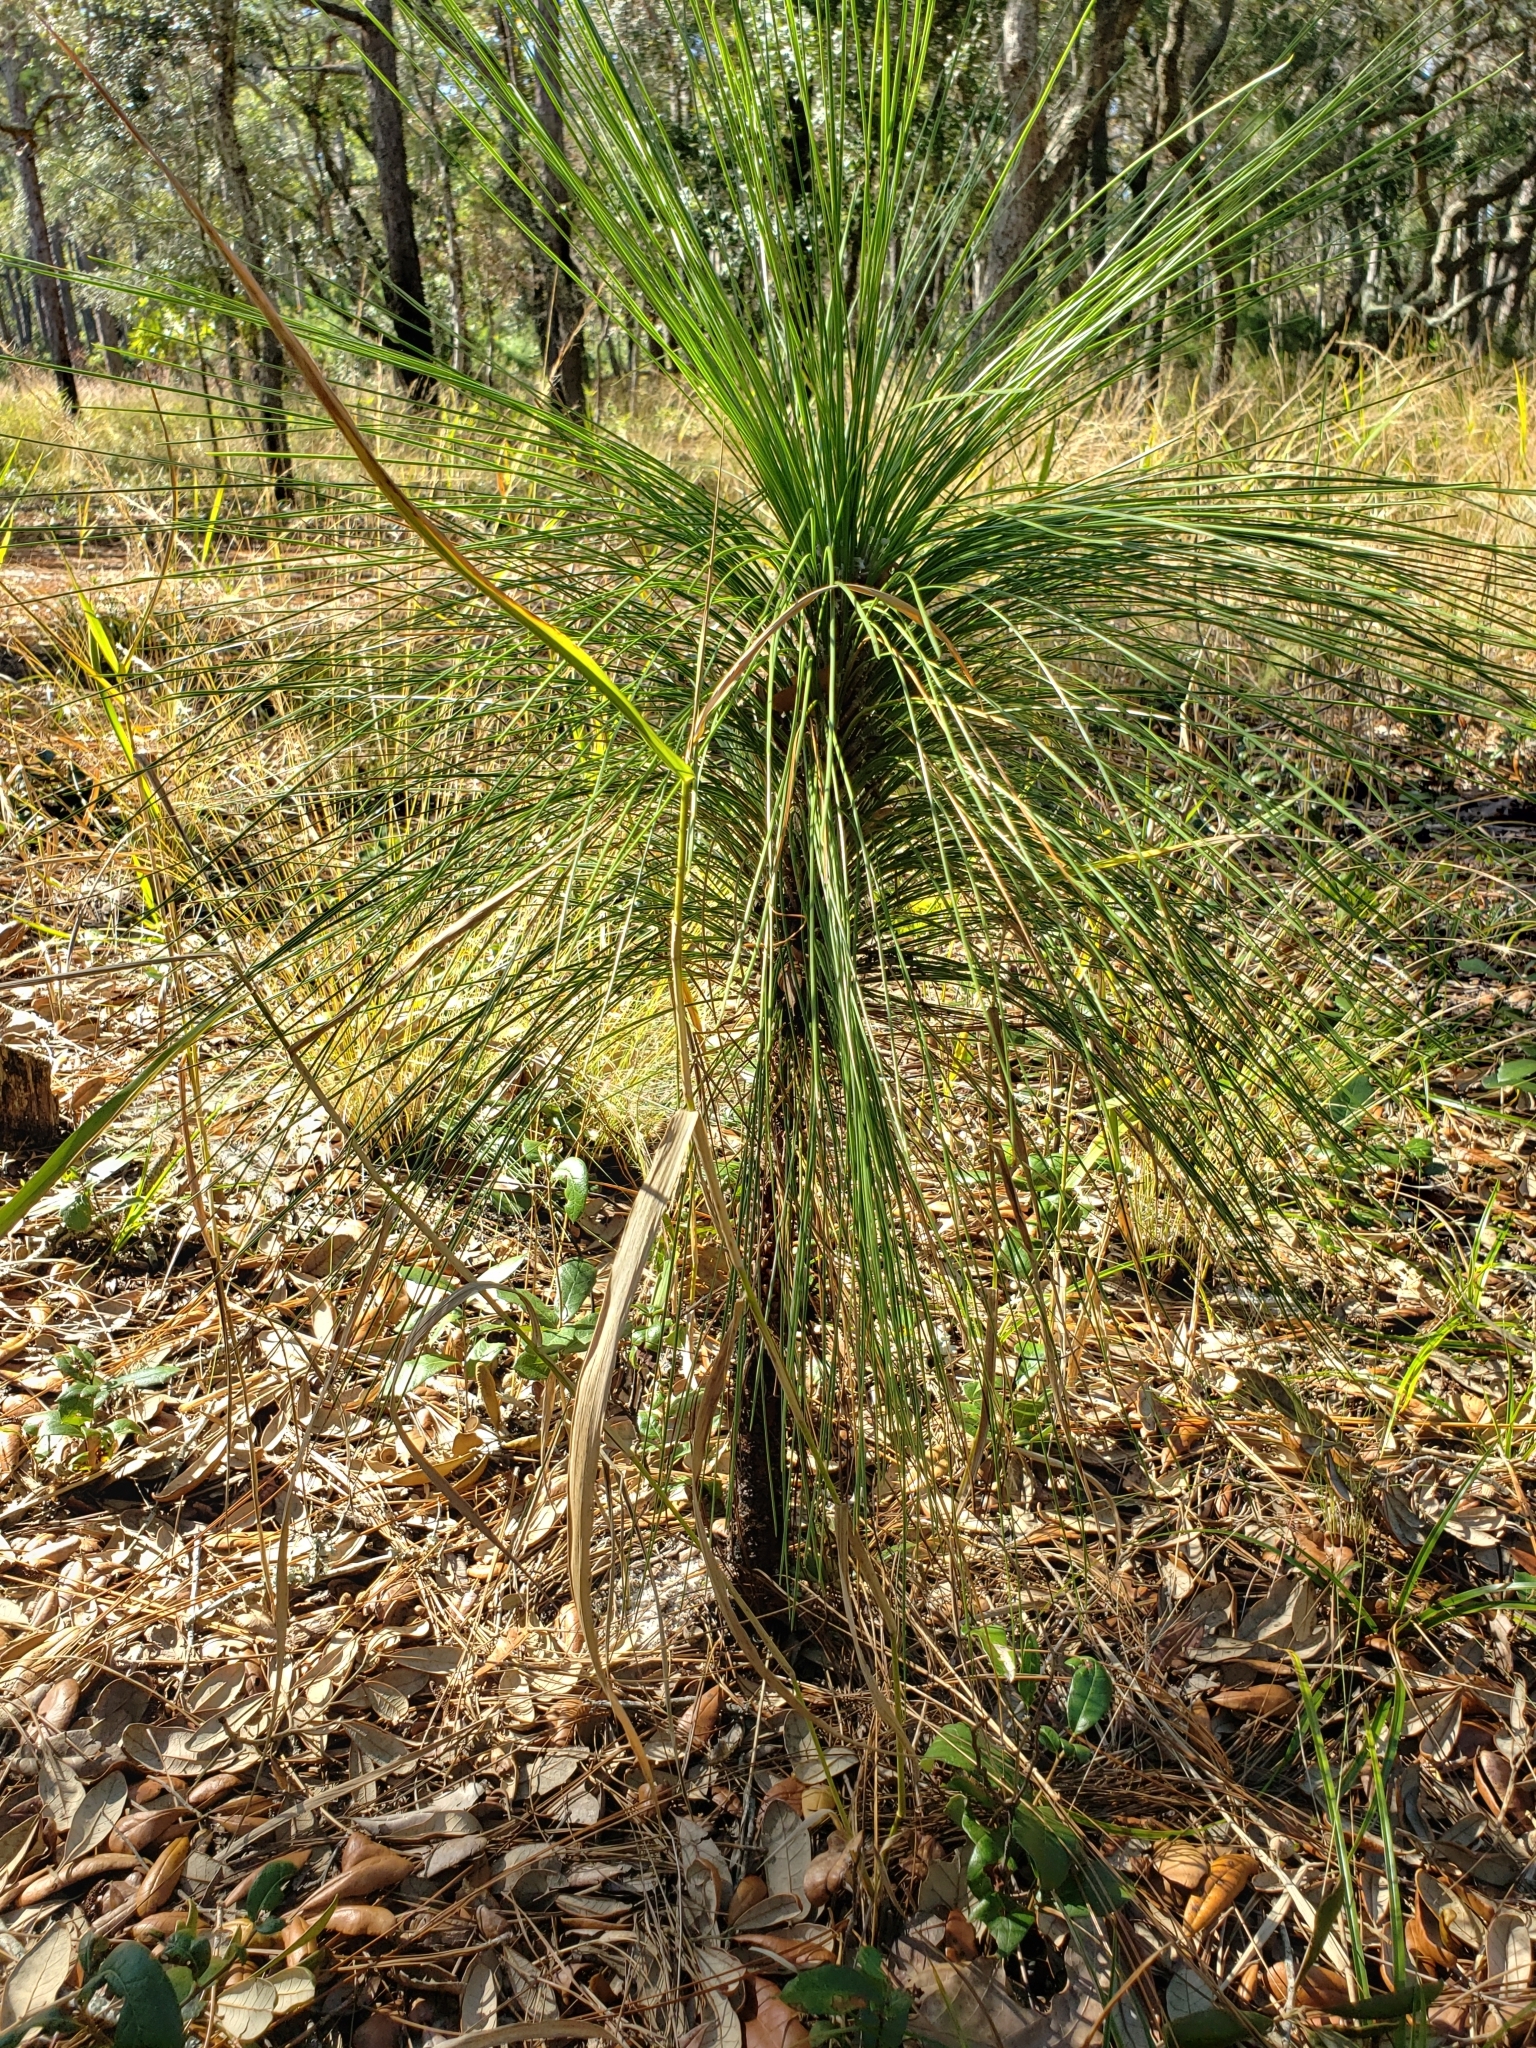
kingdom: Plantae
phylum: Tracheophyta
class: Pinopsida
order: Pinales
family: Pinaceae
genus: Pinus
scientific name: Pinus palustris
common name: Longleaf pine
